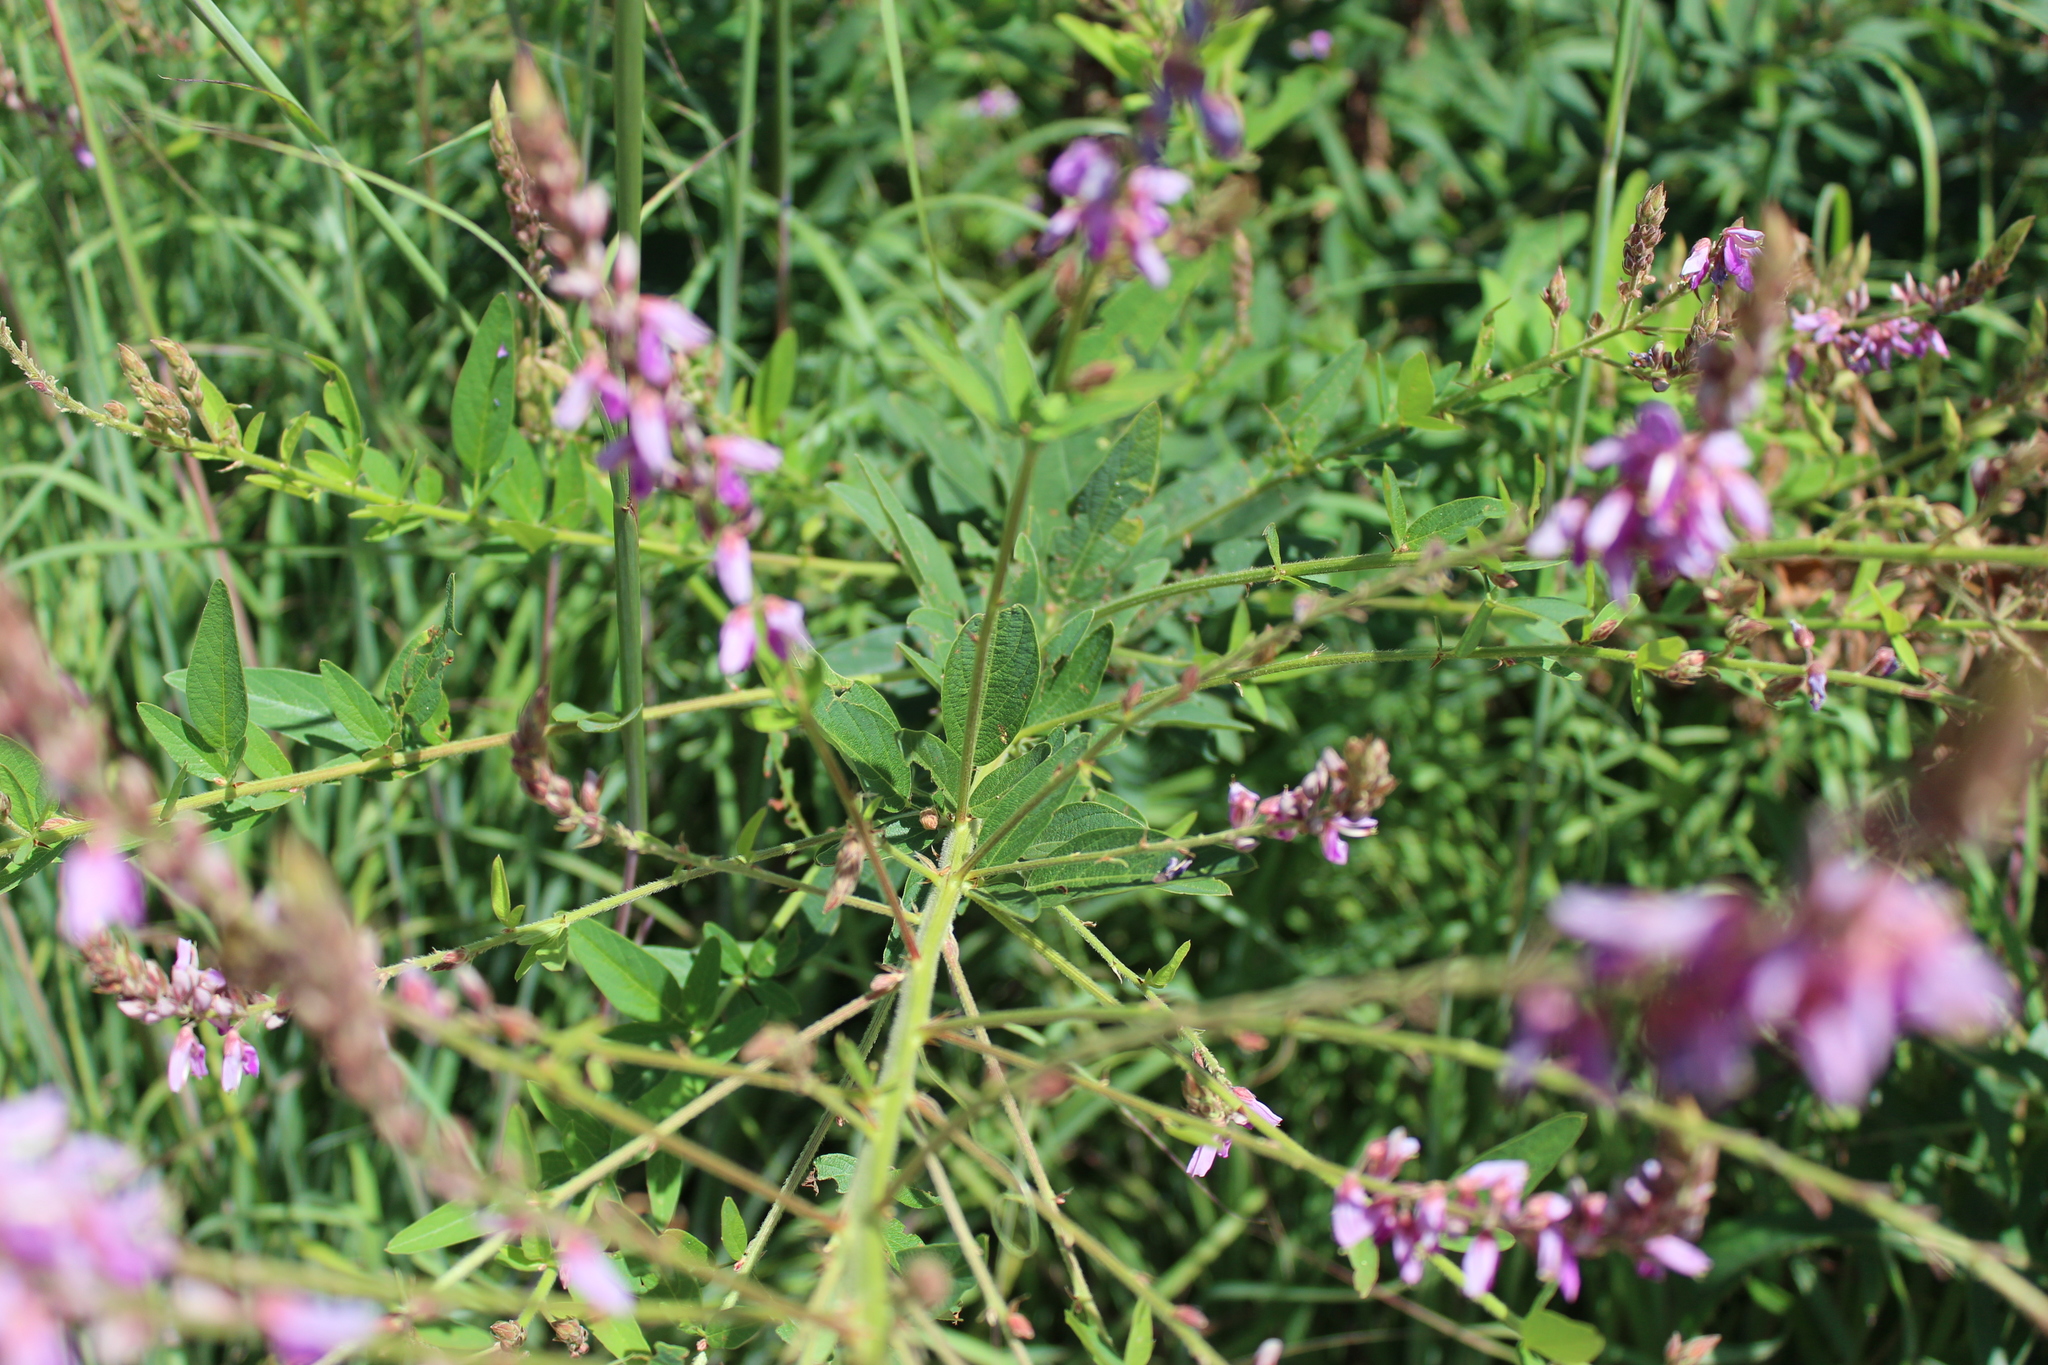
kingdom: Plantae
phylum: Tracheophyta
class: Magnoliopsida
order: Fabales
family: Fabaceae
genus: Desmodium
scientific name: Desmodium canadense
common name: Canada tick-trefoil
